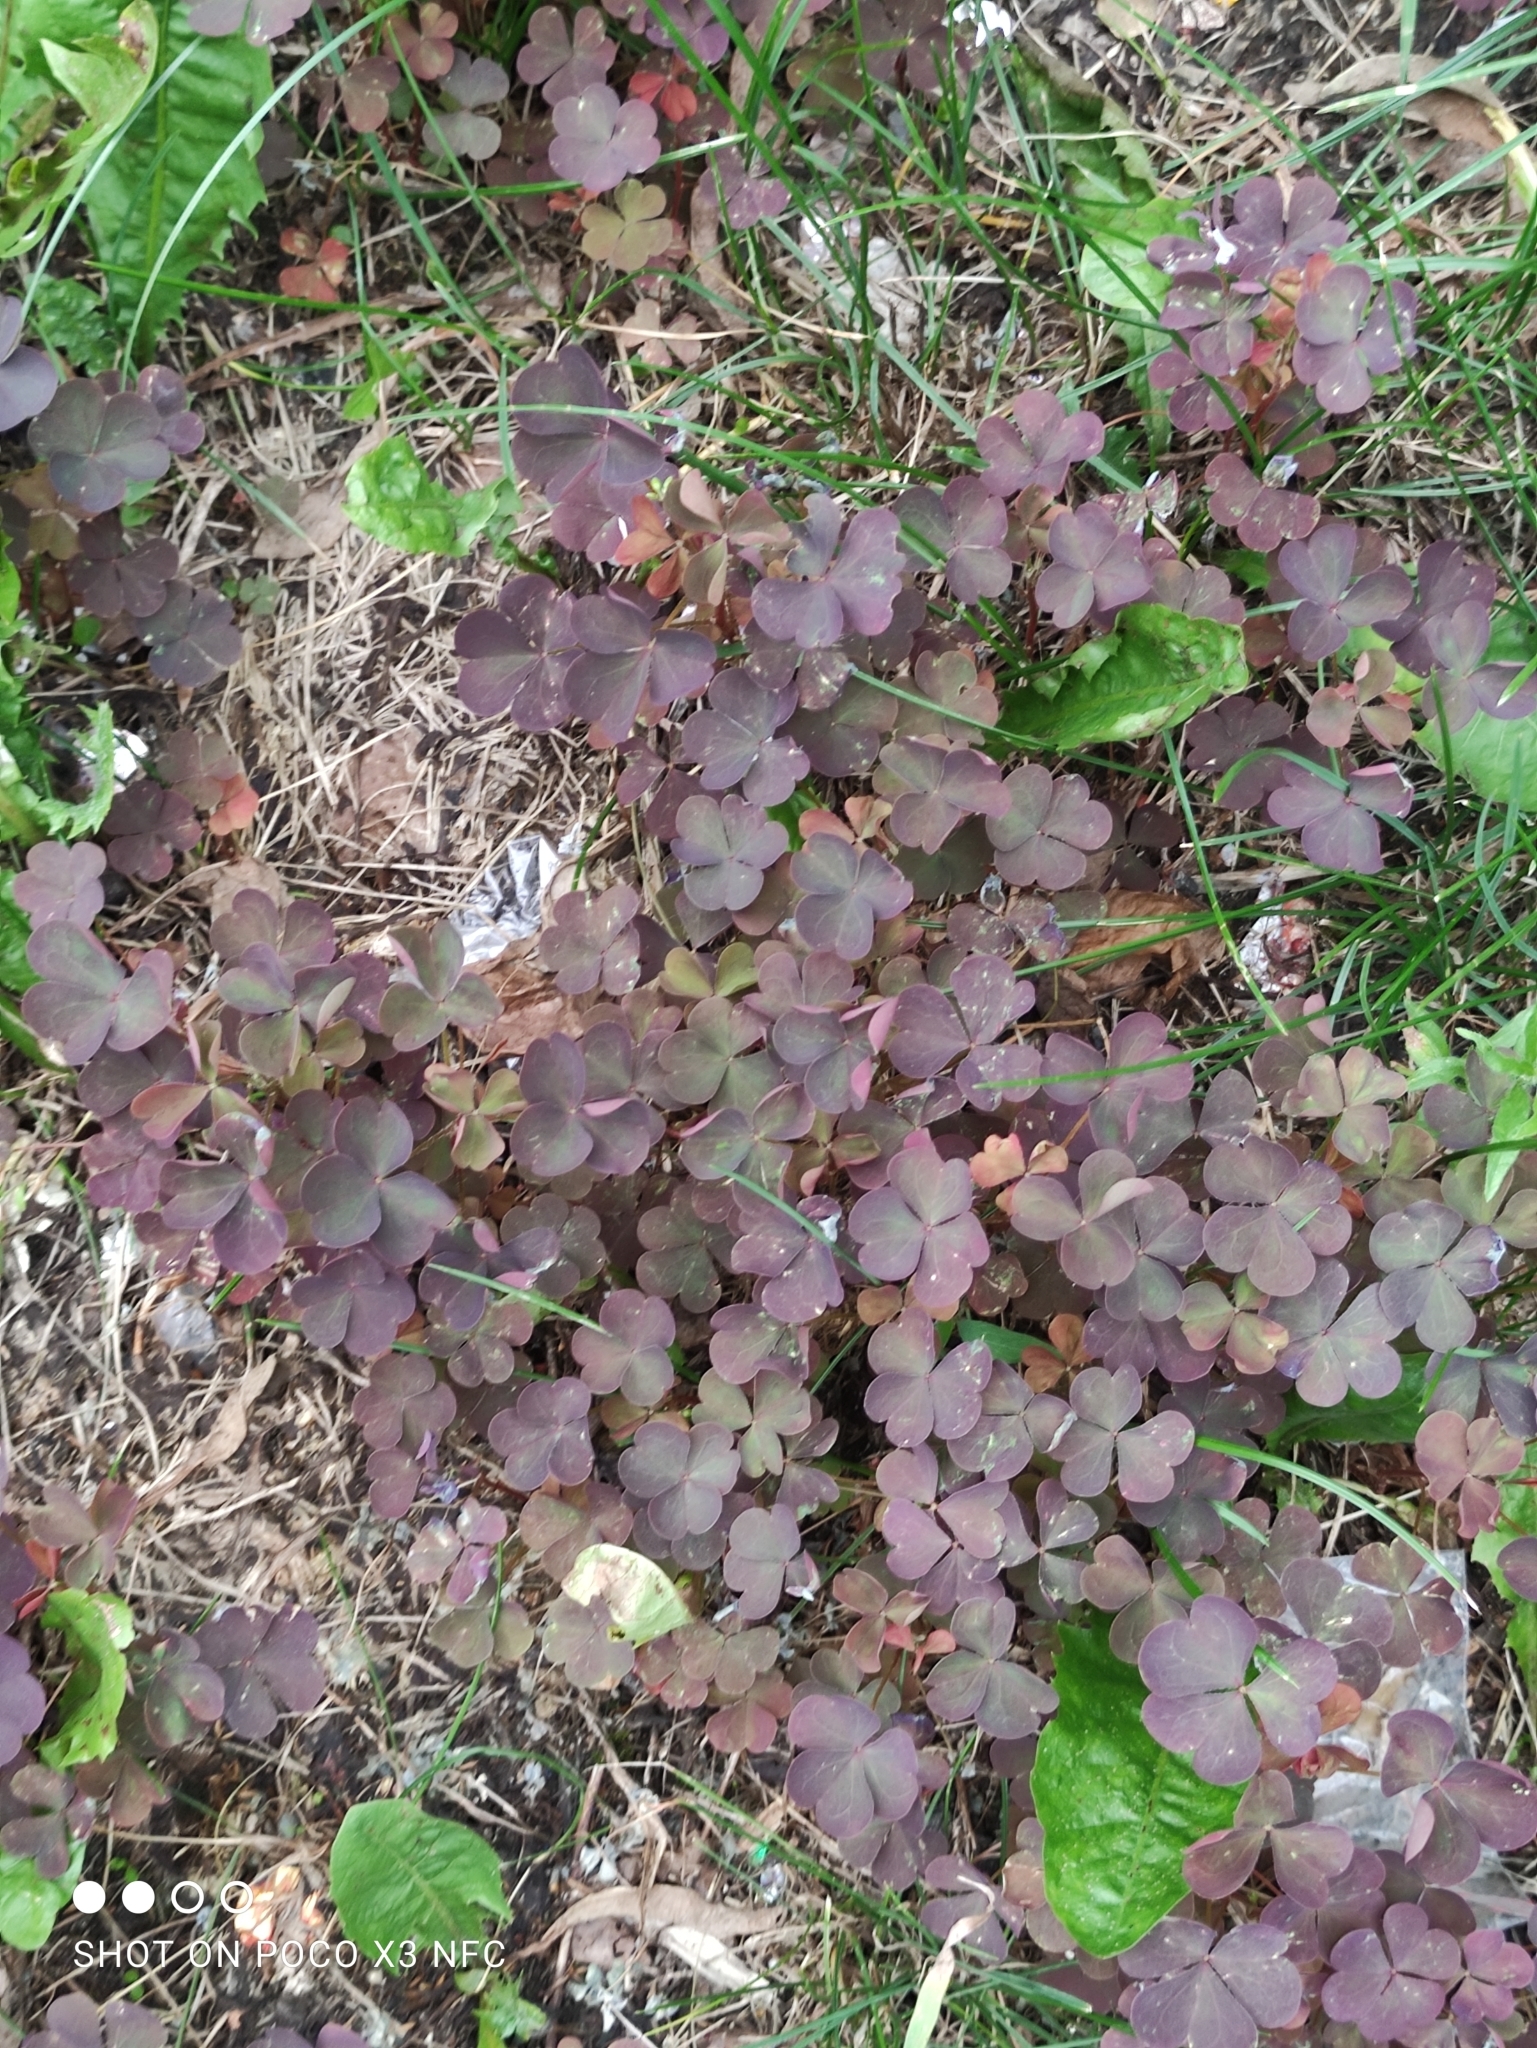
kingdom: Plantae
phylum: Tracheophyta
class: Magnoliopsida
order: Oxalidales
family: Oxalidaceae
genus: Oxalis
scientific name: Oxalis stricta
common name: Upright yellow-sorrel
